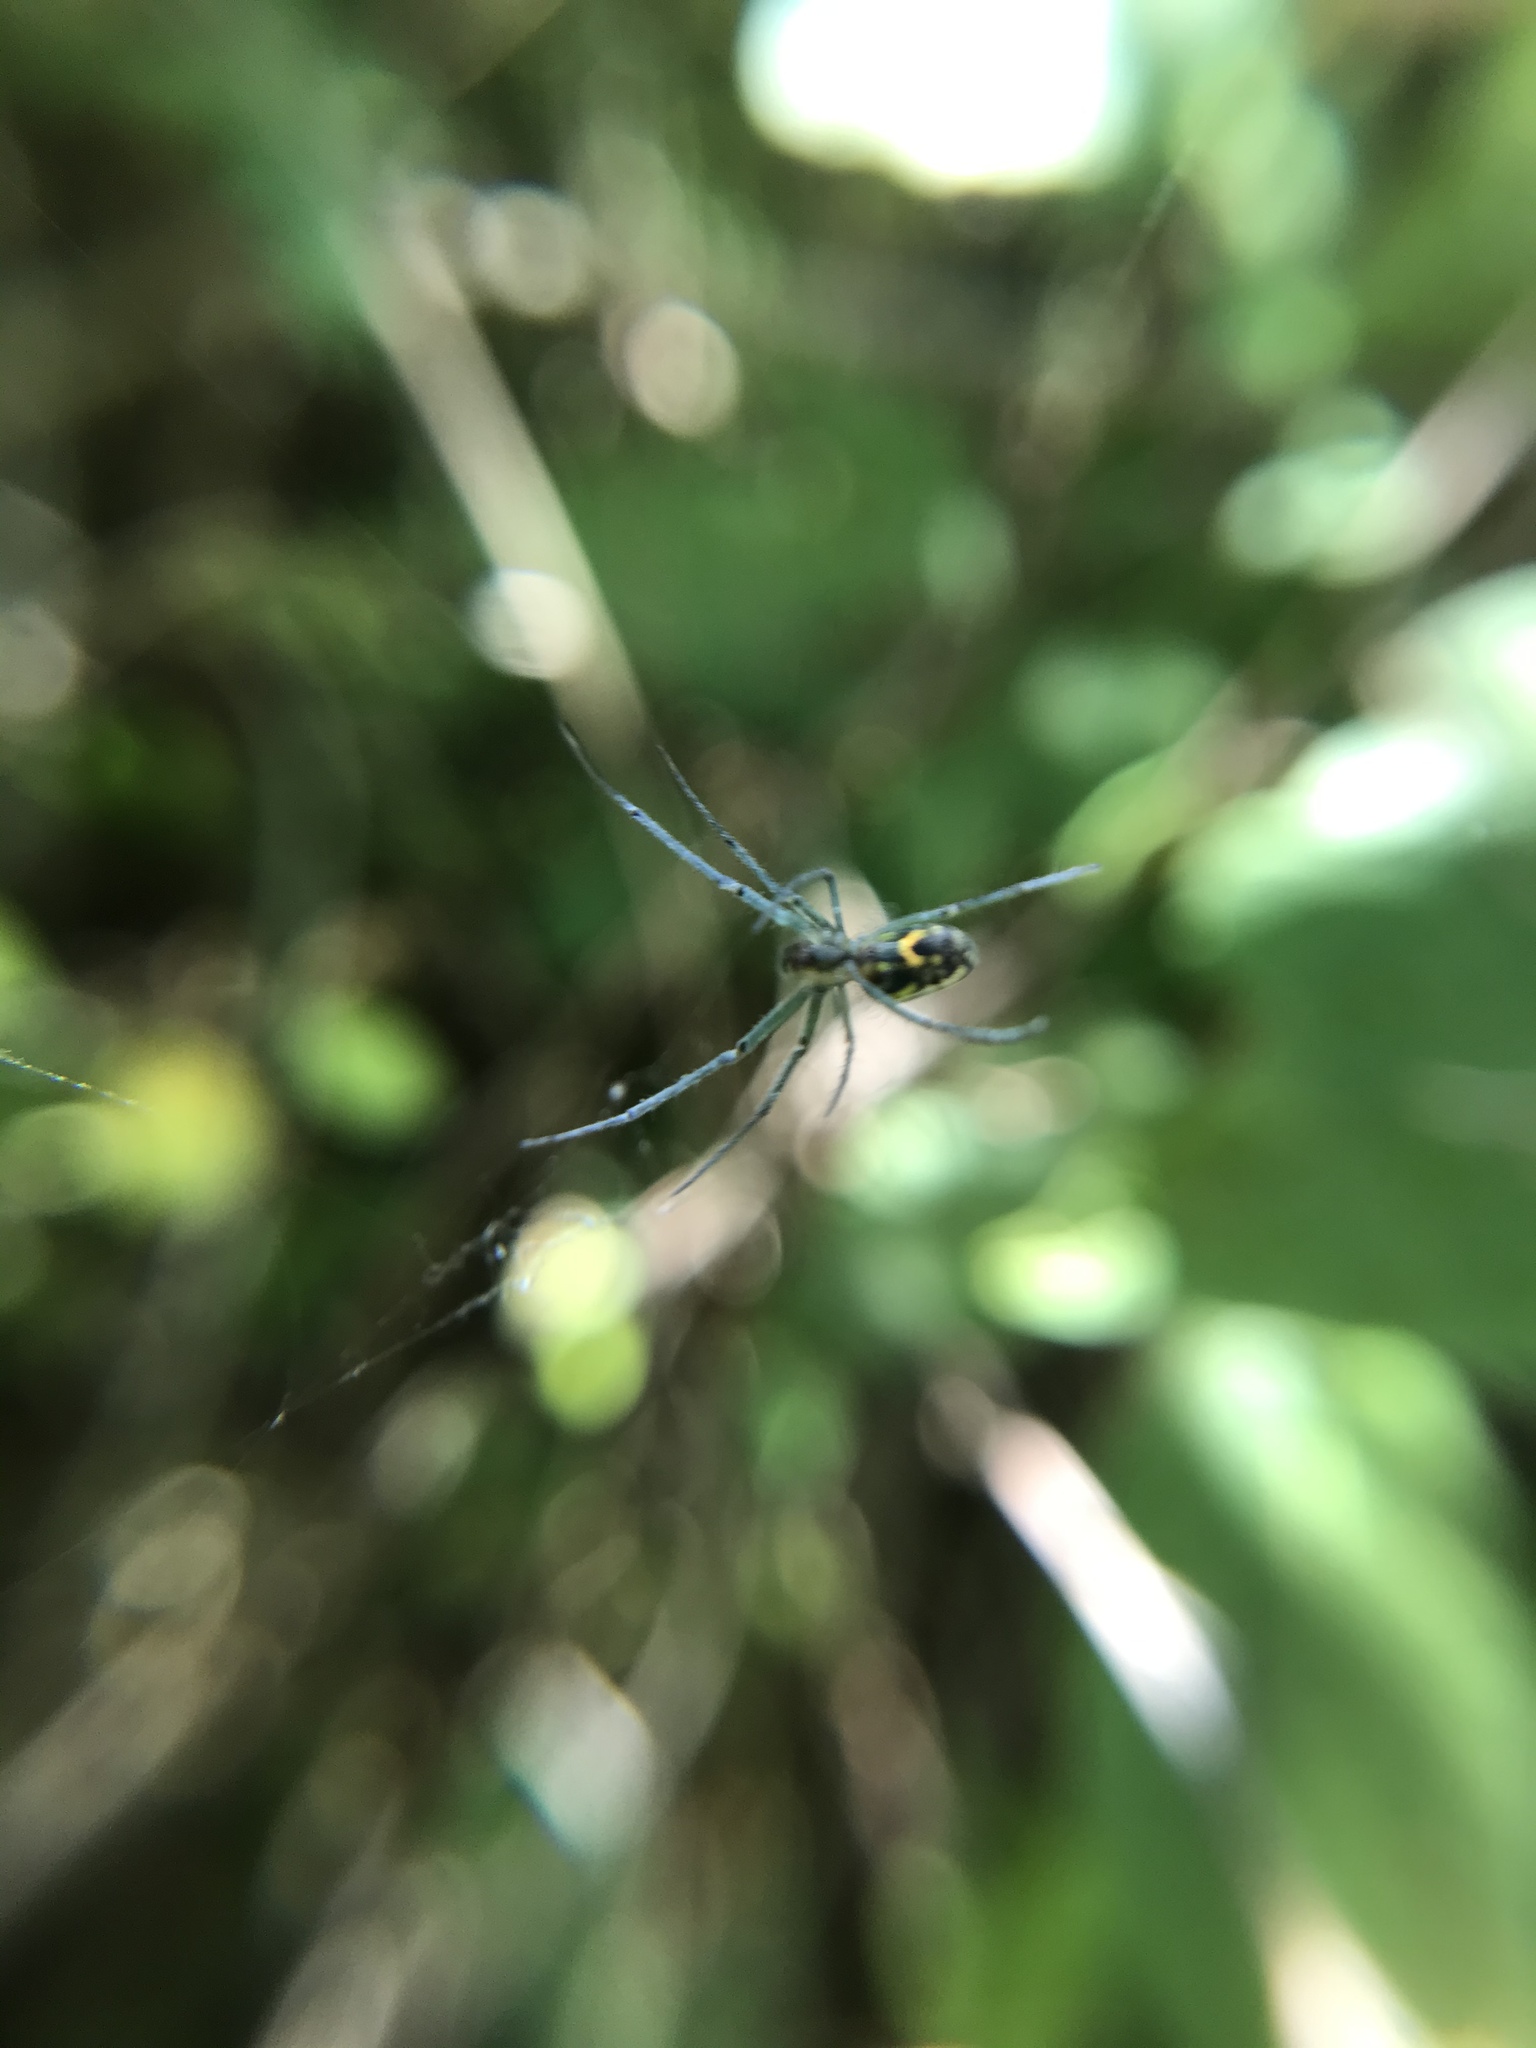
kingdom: Animalia
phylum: Arthropoda
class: Arachnida
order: Araneae
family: Tetragnathidae
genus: Leucauge
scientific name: Leucauge venusta
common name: Longjawed orb weavers
